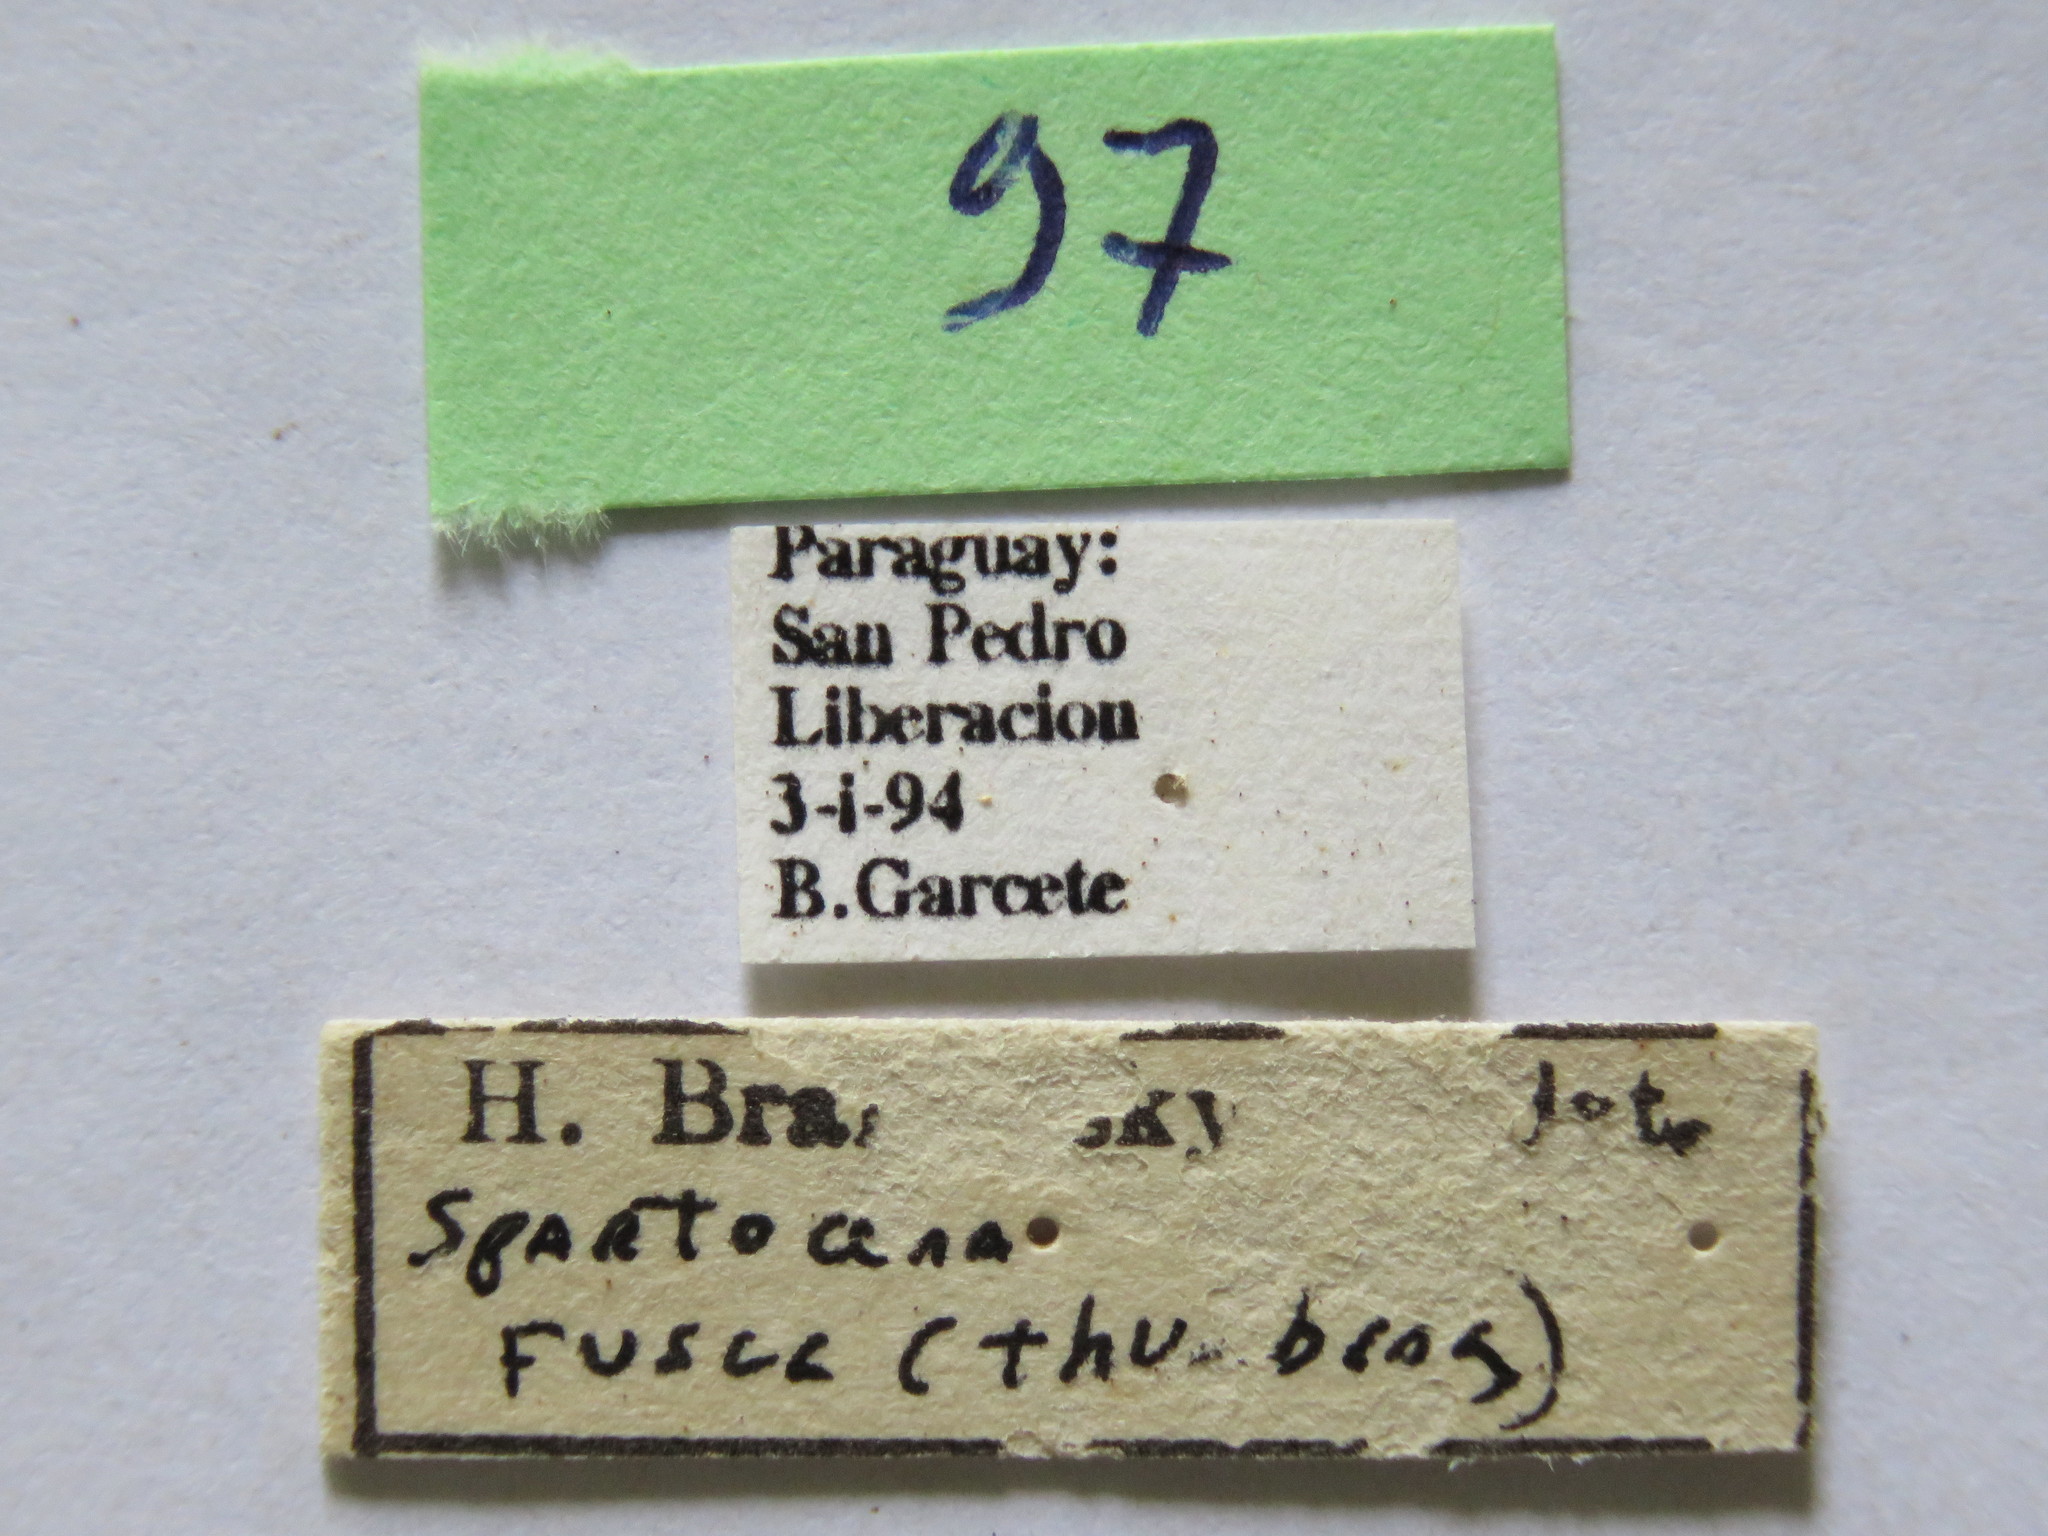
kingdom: Animalia
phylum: Arthropoda
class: Insecta
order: Hemiptera
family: Coreidae
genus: Spartocera
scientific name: Spartocera fusca
